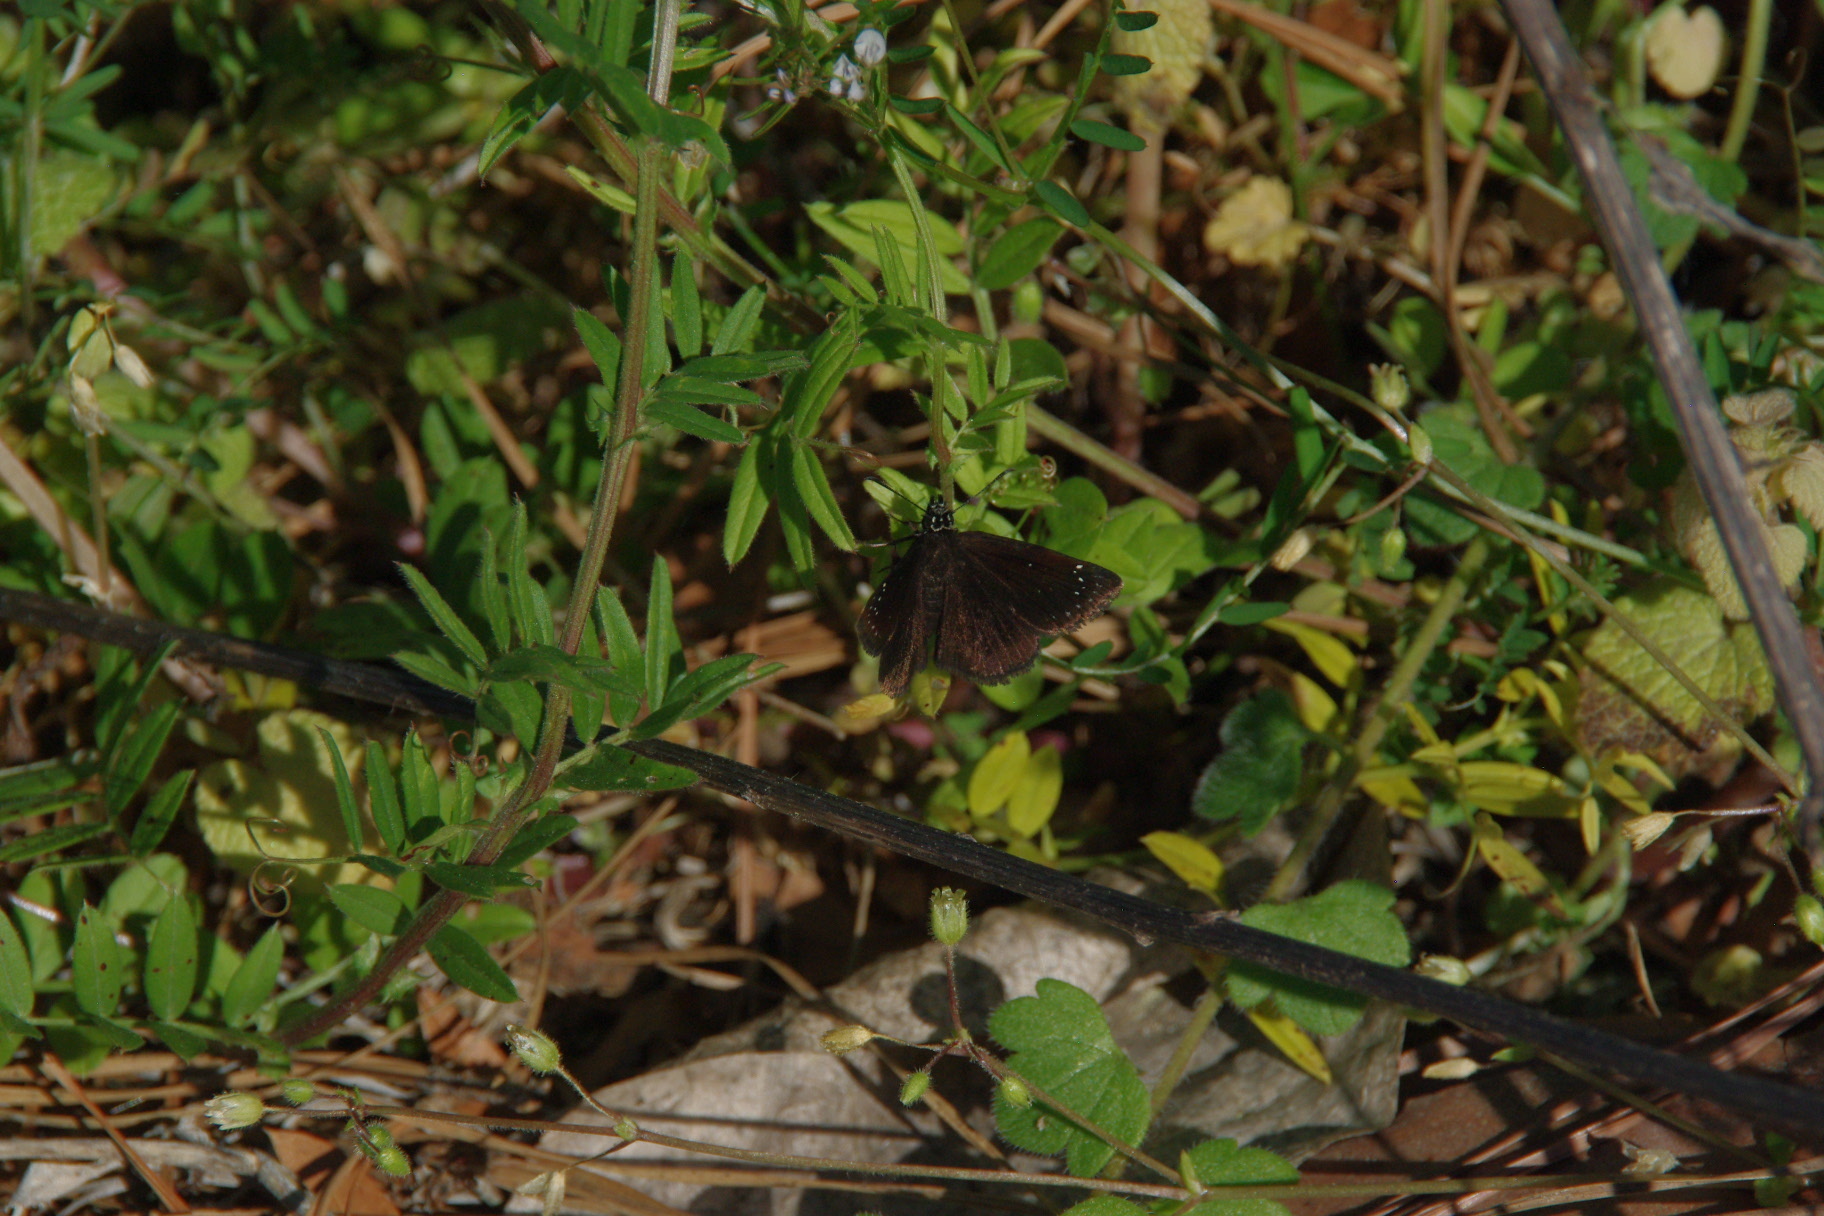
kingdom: Animalia
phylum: Arthropoda
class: Insecta
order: Lepidoptera
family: Hesperiidae
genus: Pholisora
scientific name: Pholisora catullus
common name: Common sootywing
